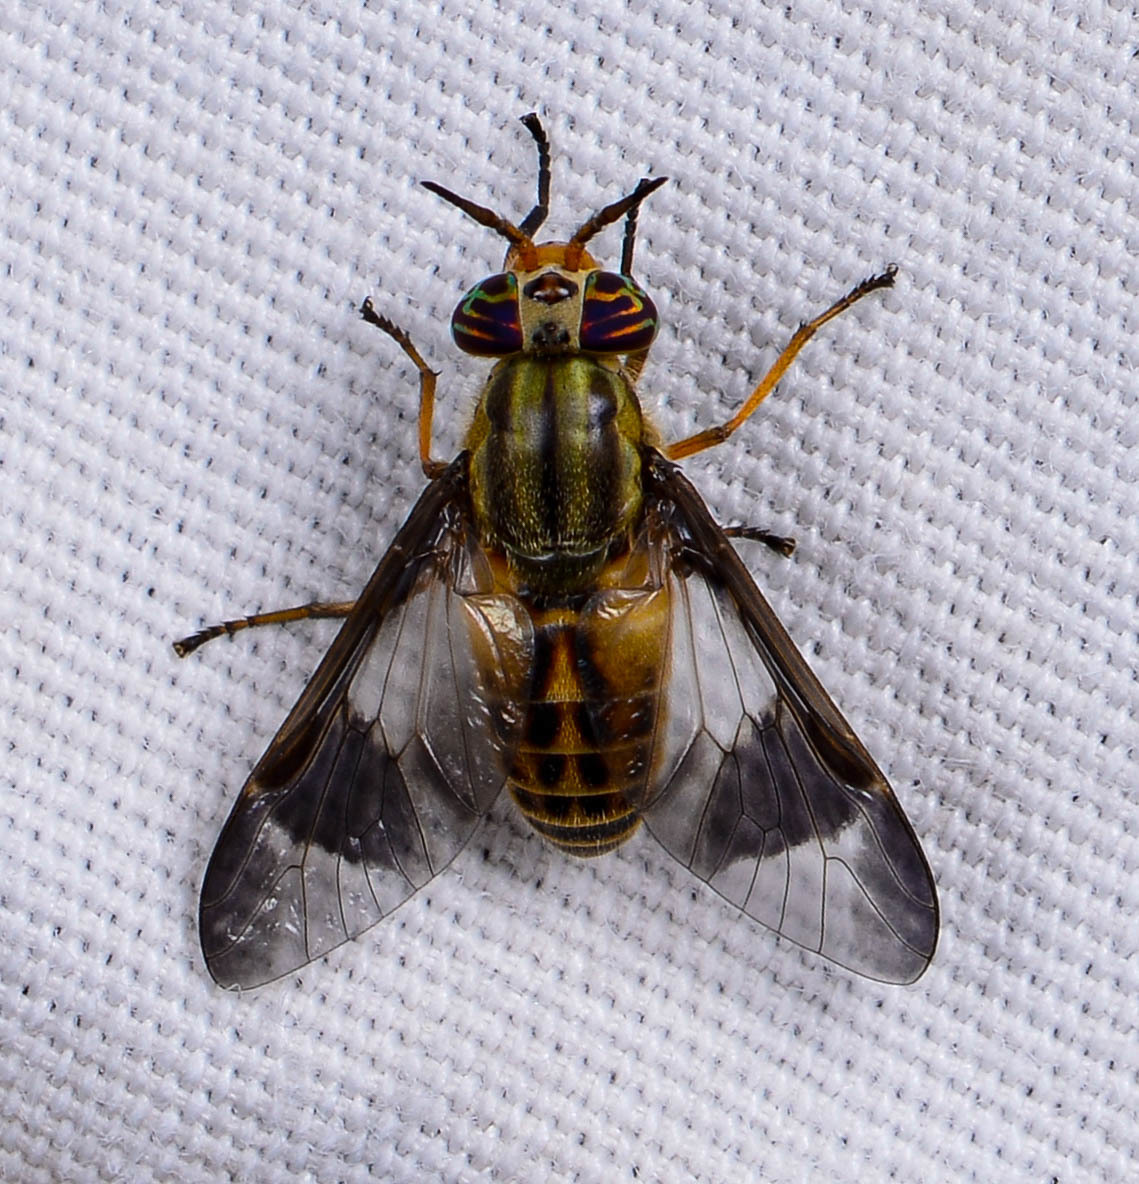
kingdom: Animalia
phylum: Arthropoda
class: Insecta
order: Diptera
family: Tabanidae
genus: Chrysops
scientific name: Chrysops montanus
